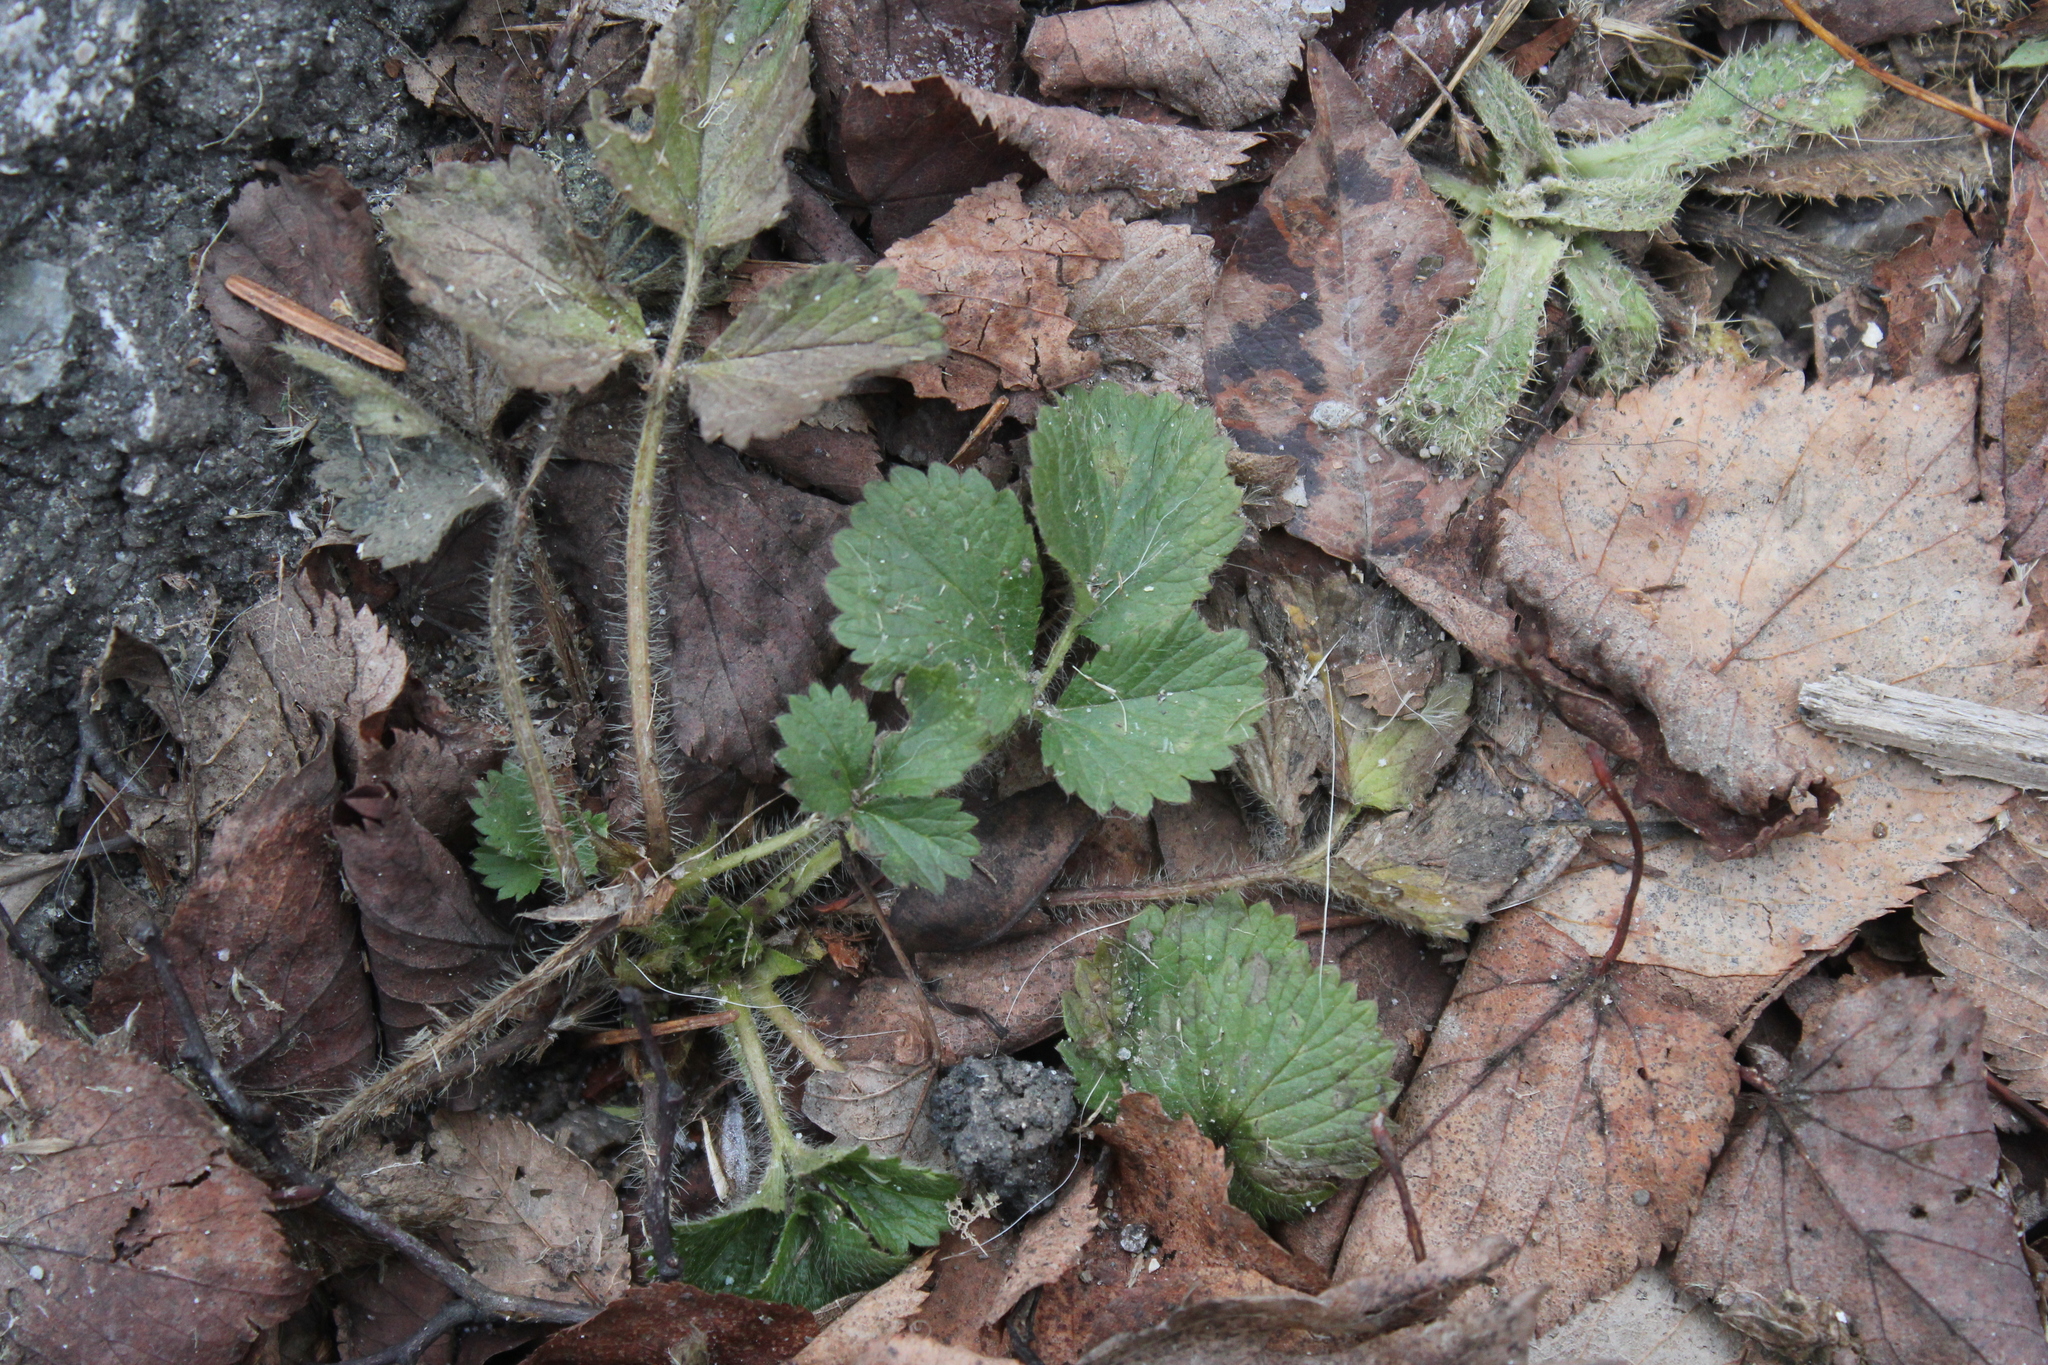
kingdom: Plantae
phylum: Tracheophyta
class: Magnoliopsida
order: Rosales
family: Rosaceae
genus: Potentilla
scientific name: Potentilla norvegica
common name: Ternate-leaved cinquefoil
